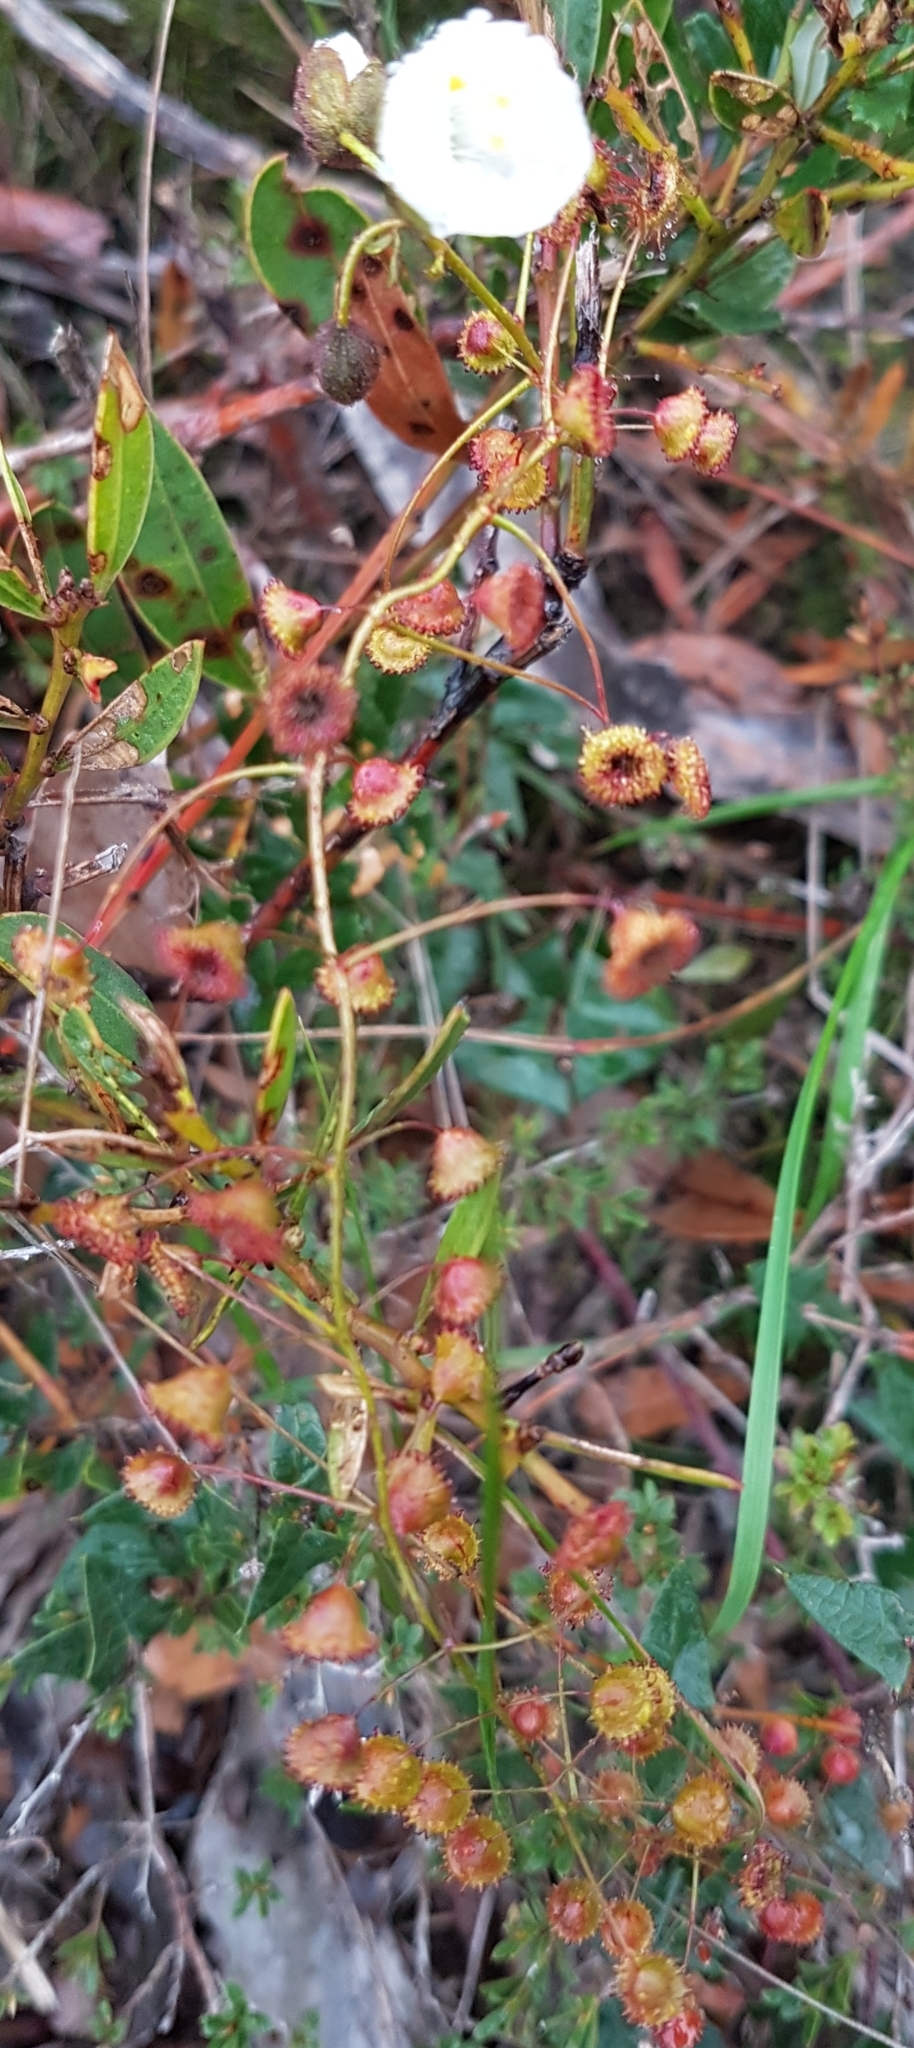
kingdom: Plantae
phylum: Tracheophyta
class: Magnoliopsida
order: Caryophyllales
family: Droseraceae
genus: Drosera
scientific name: Drosera planchonii
